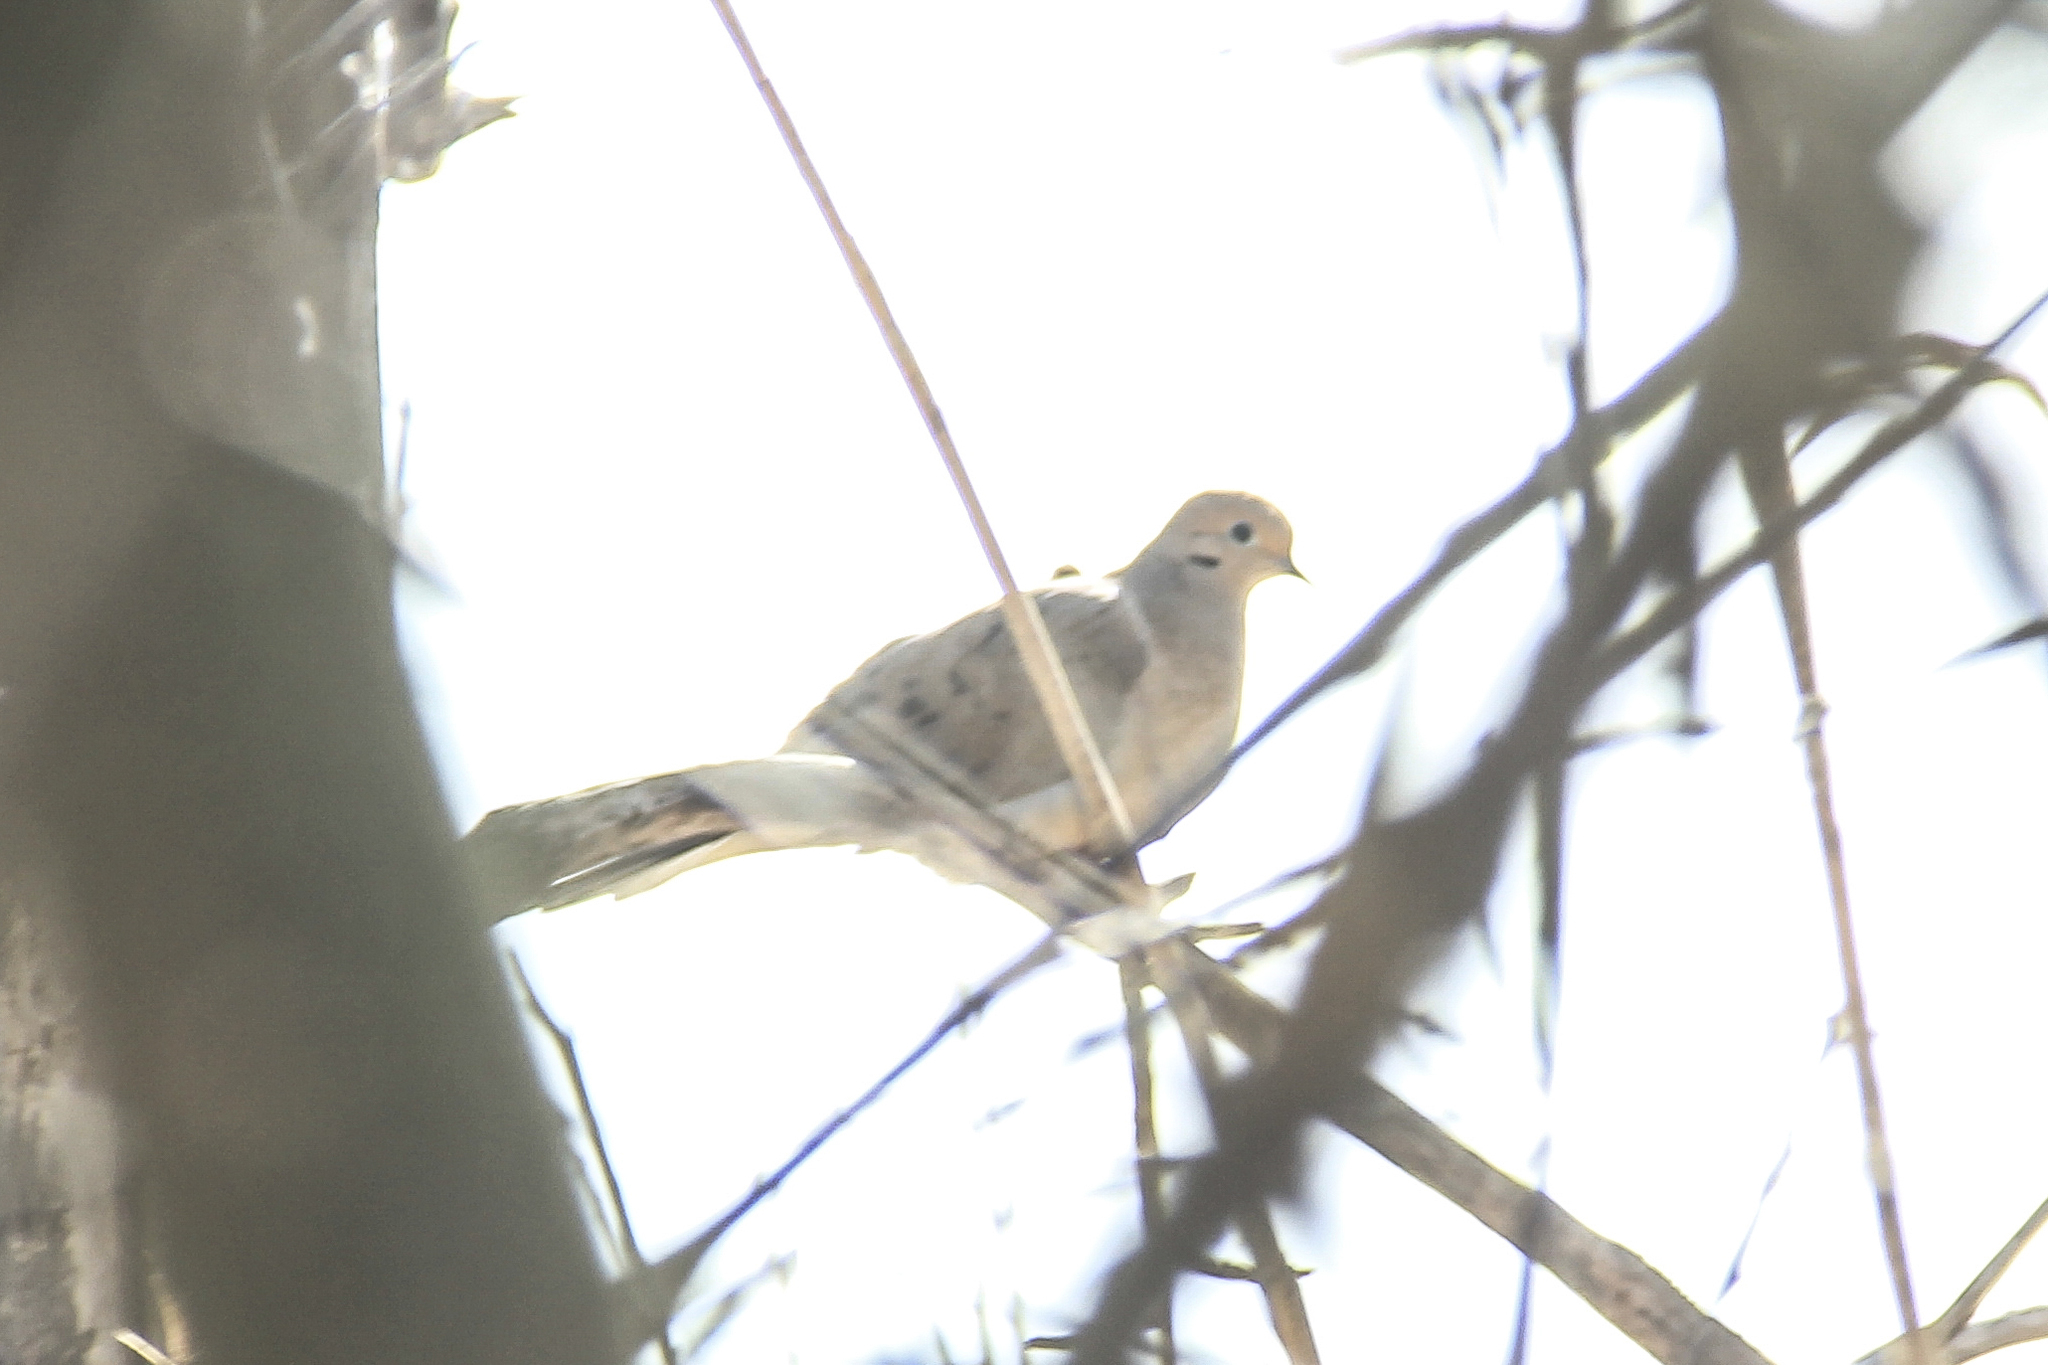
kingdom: Animalia
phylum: Chordata
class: Aves
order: Columbiformes
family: Columbidae
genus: Zenaida
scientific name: Zenaida macroura
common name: Mourning dove
